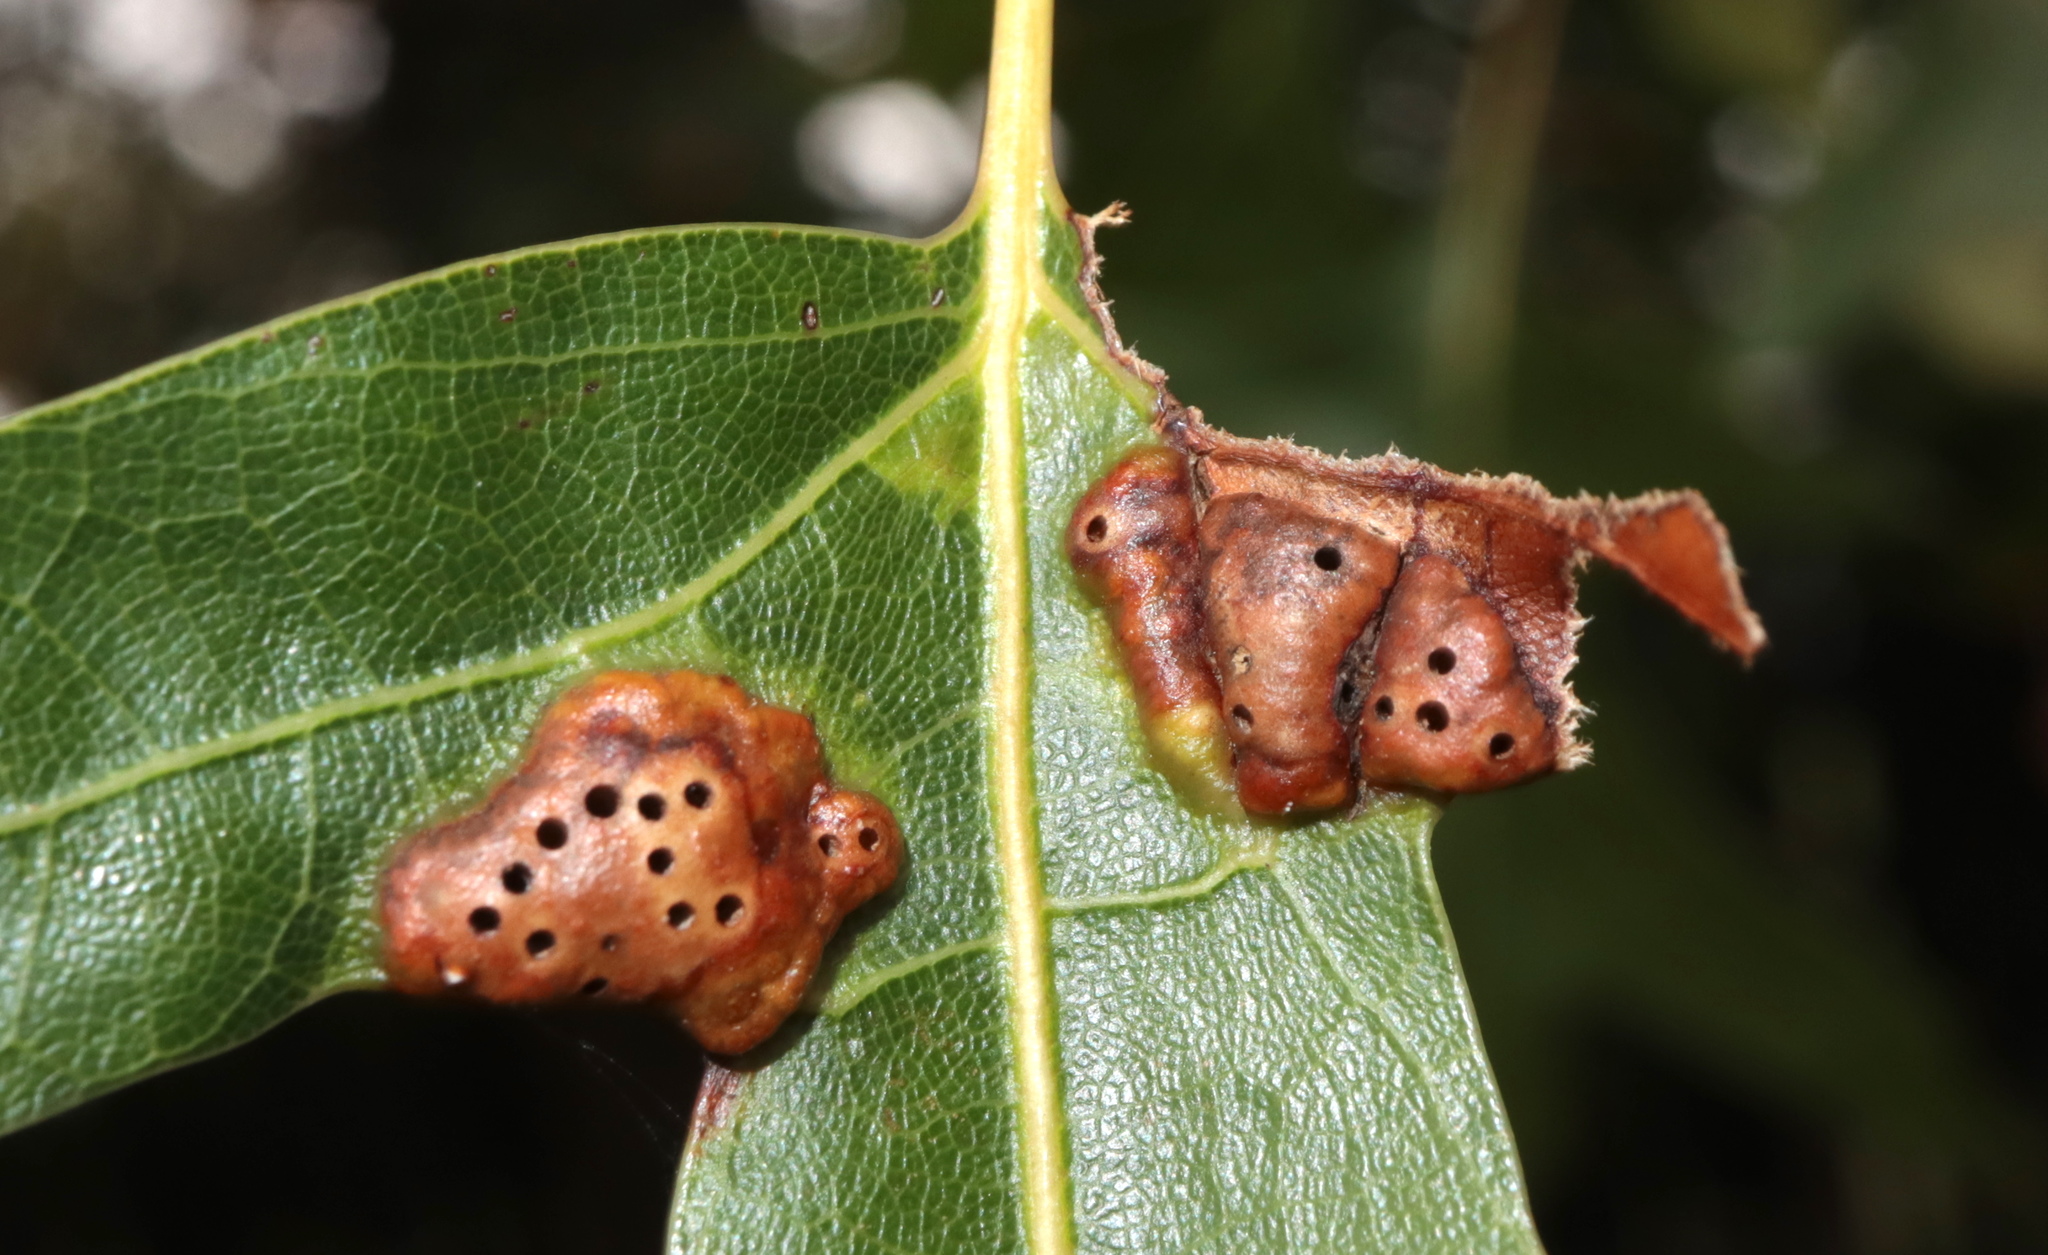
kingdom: Animalia
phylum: Arthropoda
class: Insecta
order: Hymenoptera
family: Cynipidae
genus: Callirhytis
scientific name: Callirhytis
